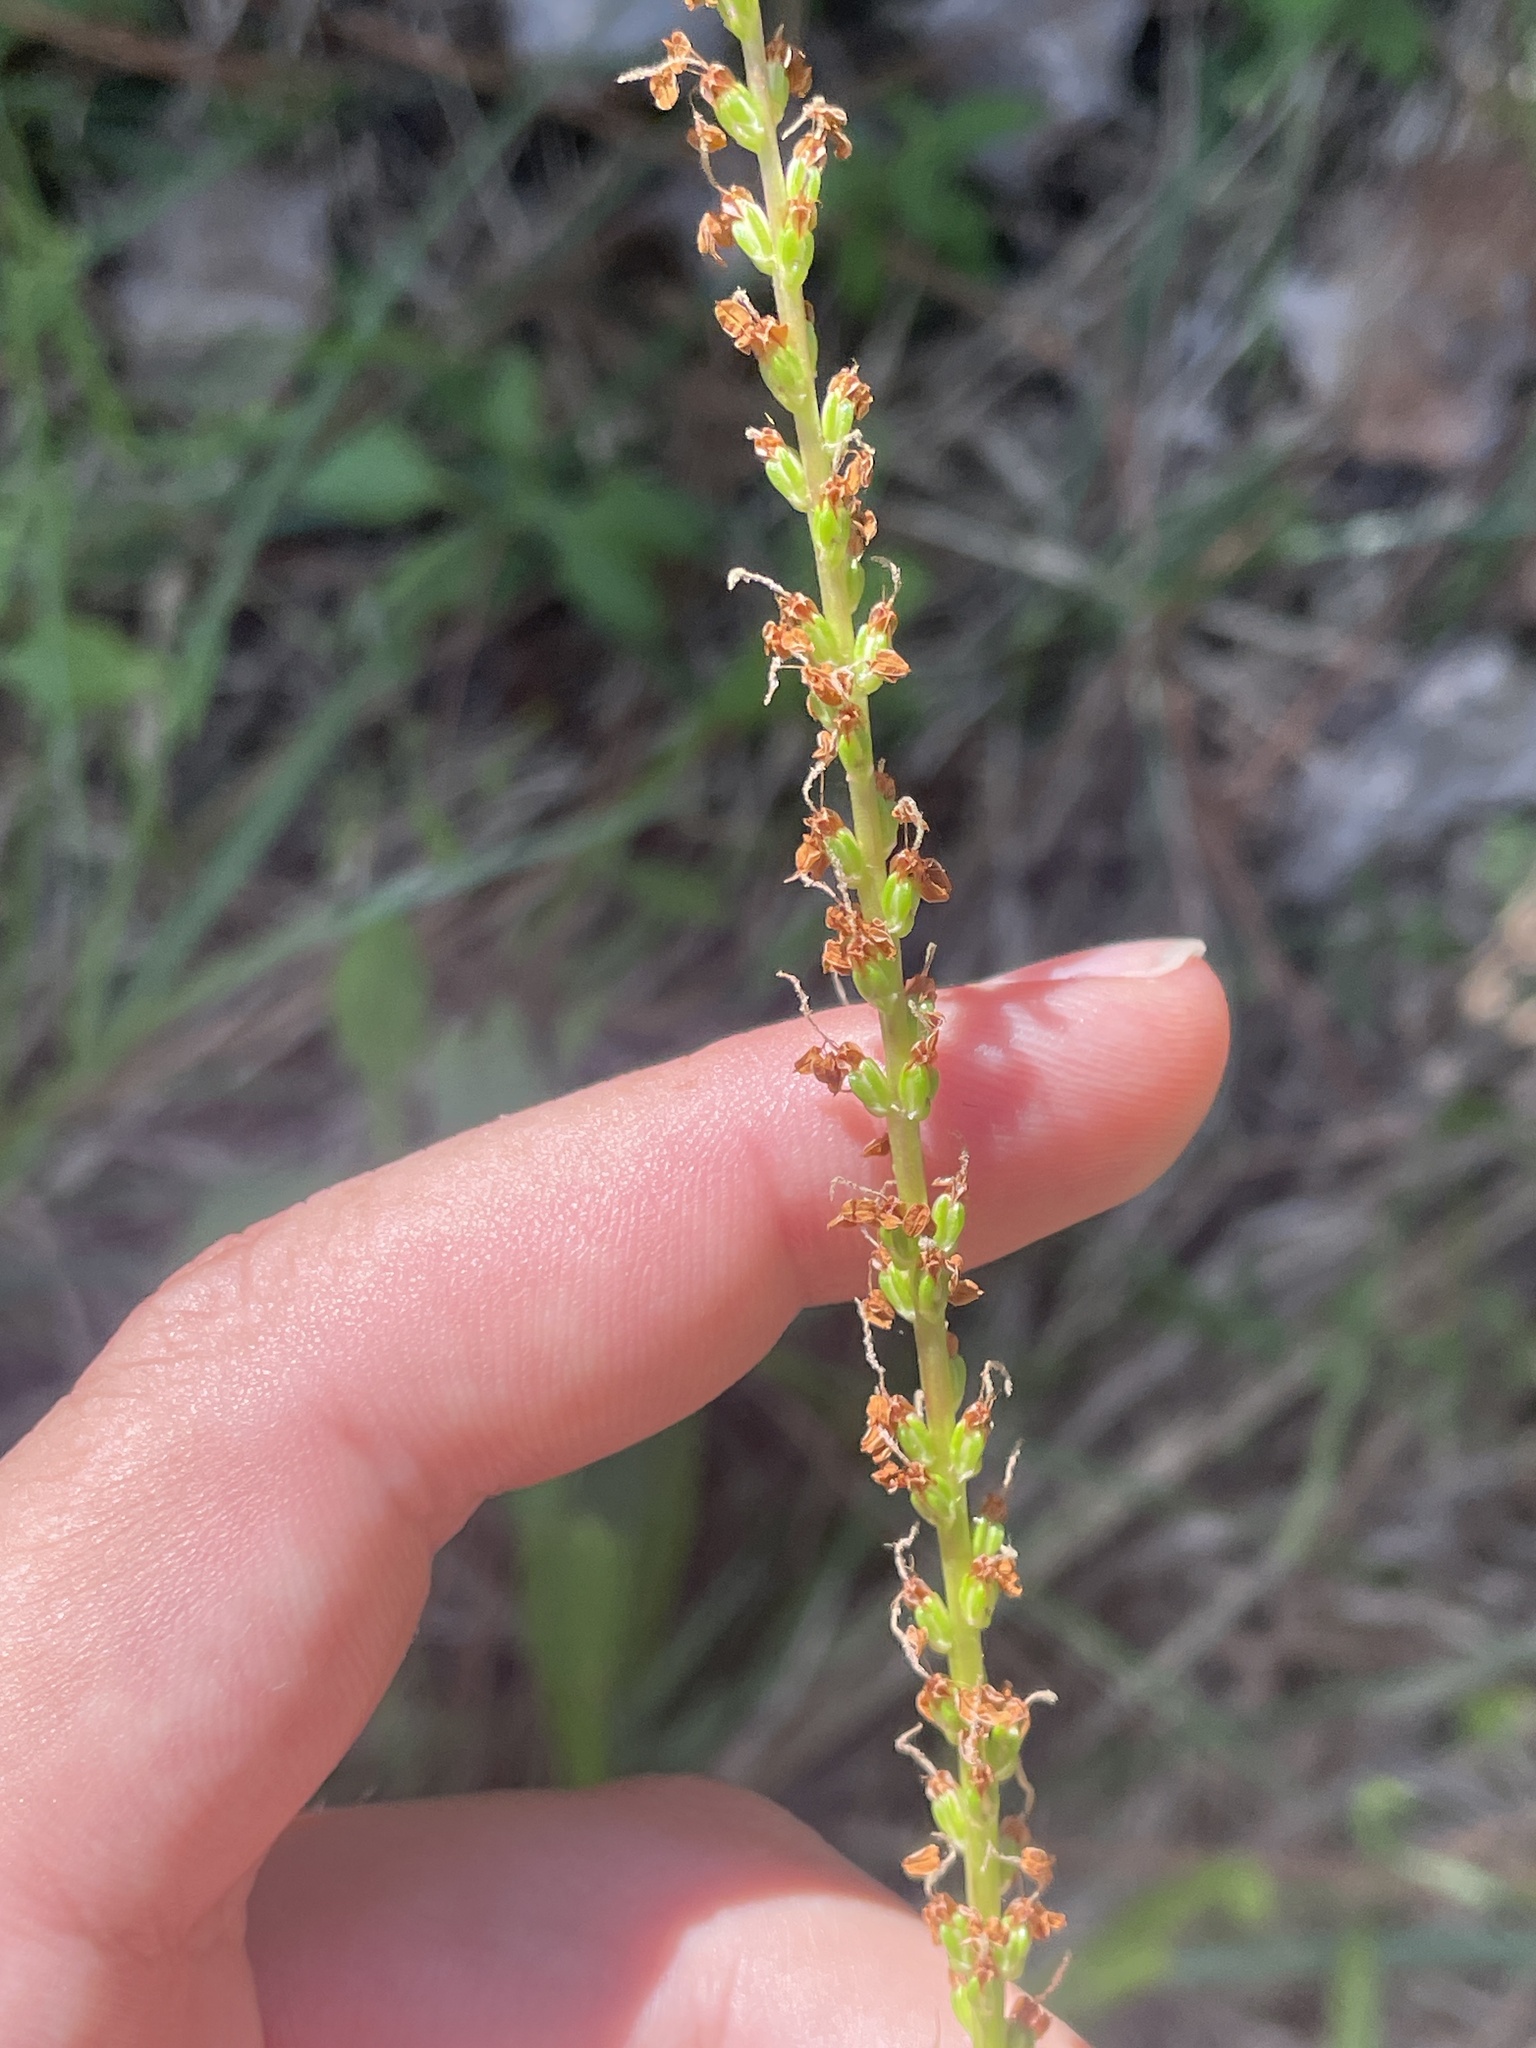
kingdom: Plantae
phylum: Tracheophyta
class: Magnoliopsida
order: Lamiales
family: Plantaginaceae
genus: Plantago
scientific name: Plantago sparsiflora
